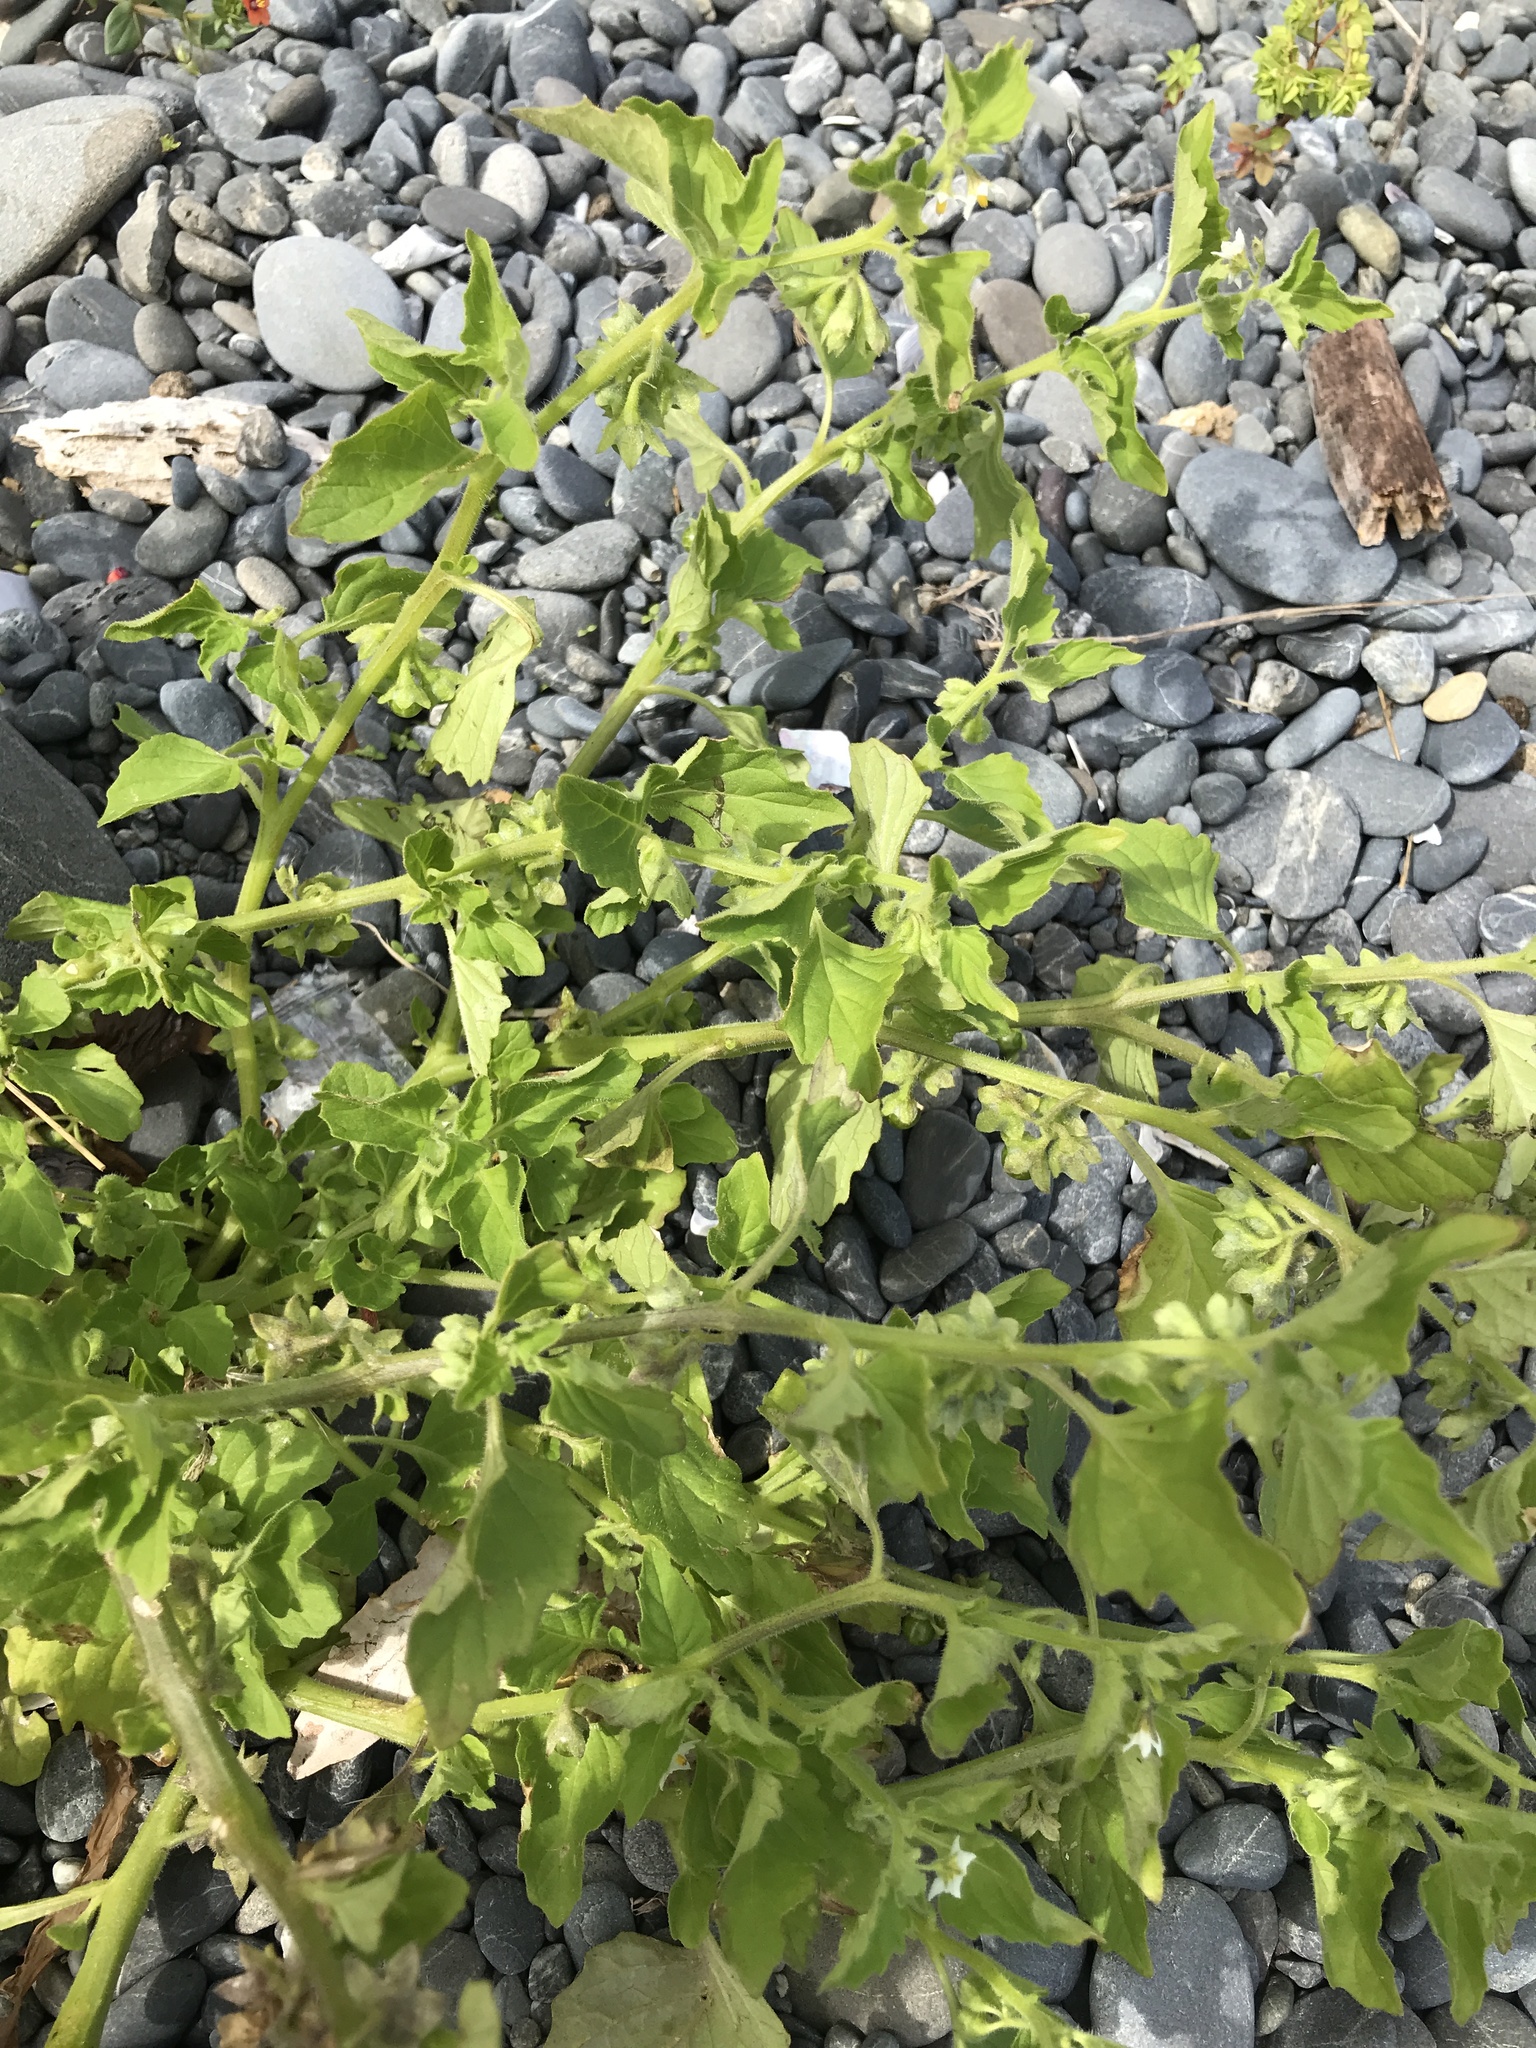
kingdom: Plantae
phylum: Tracheophyta
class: Magnoliopsida
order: Solanales
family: Solanaceae
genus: Solanum
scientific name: Solanum nitidibaccatum
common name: Hairy nightshade
